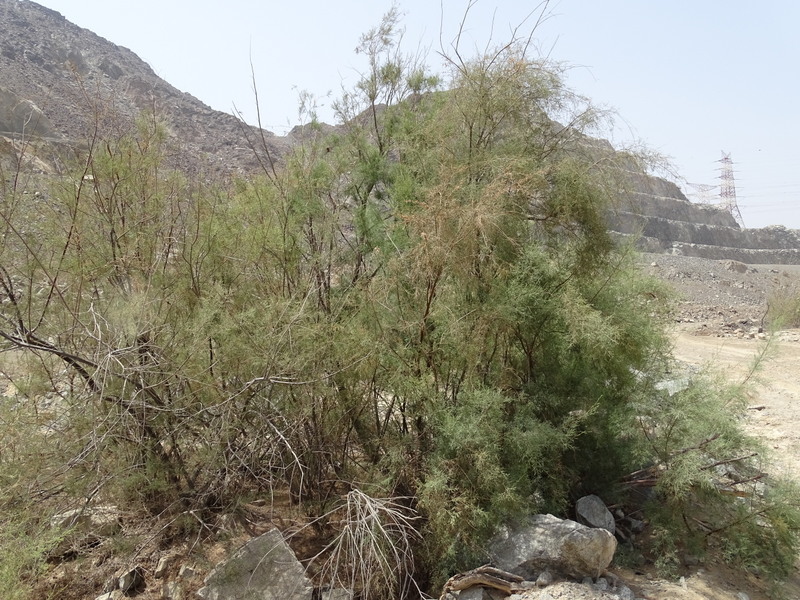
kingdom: Plantae
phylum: Tracheophyta
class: Magnoliopsida
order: Caryophyllales
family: Tamaricaceae
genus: Tamarix
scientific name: Tamarix aphylla
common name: Athel tamarisk
